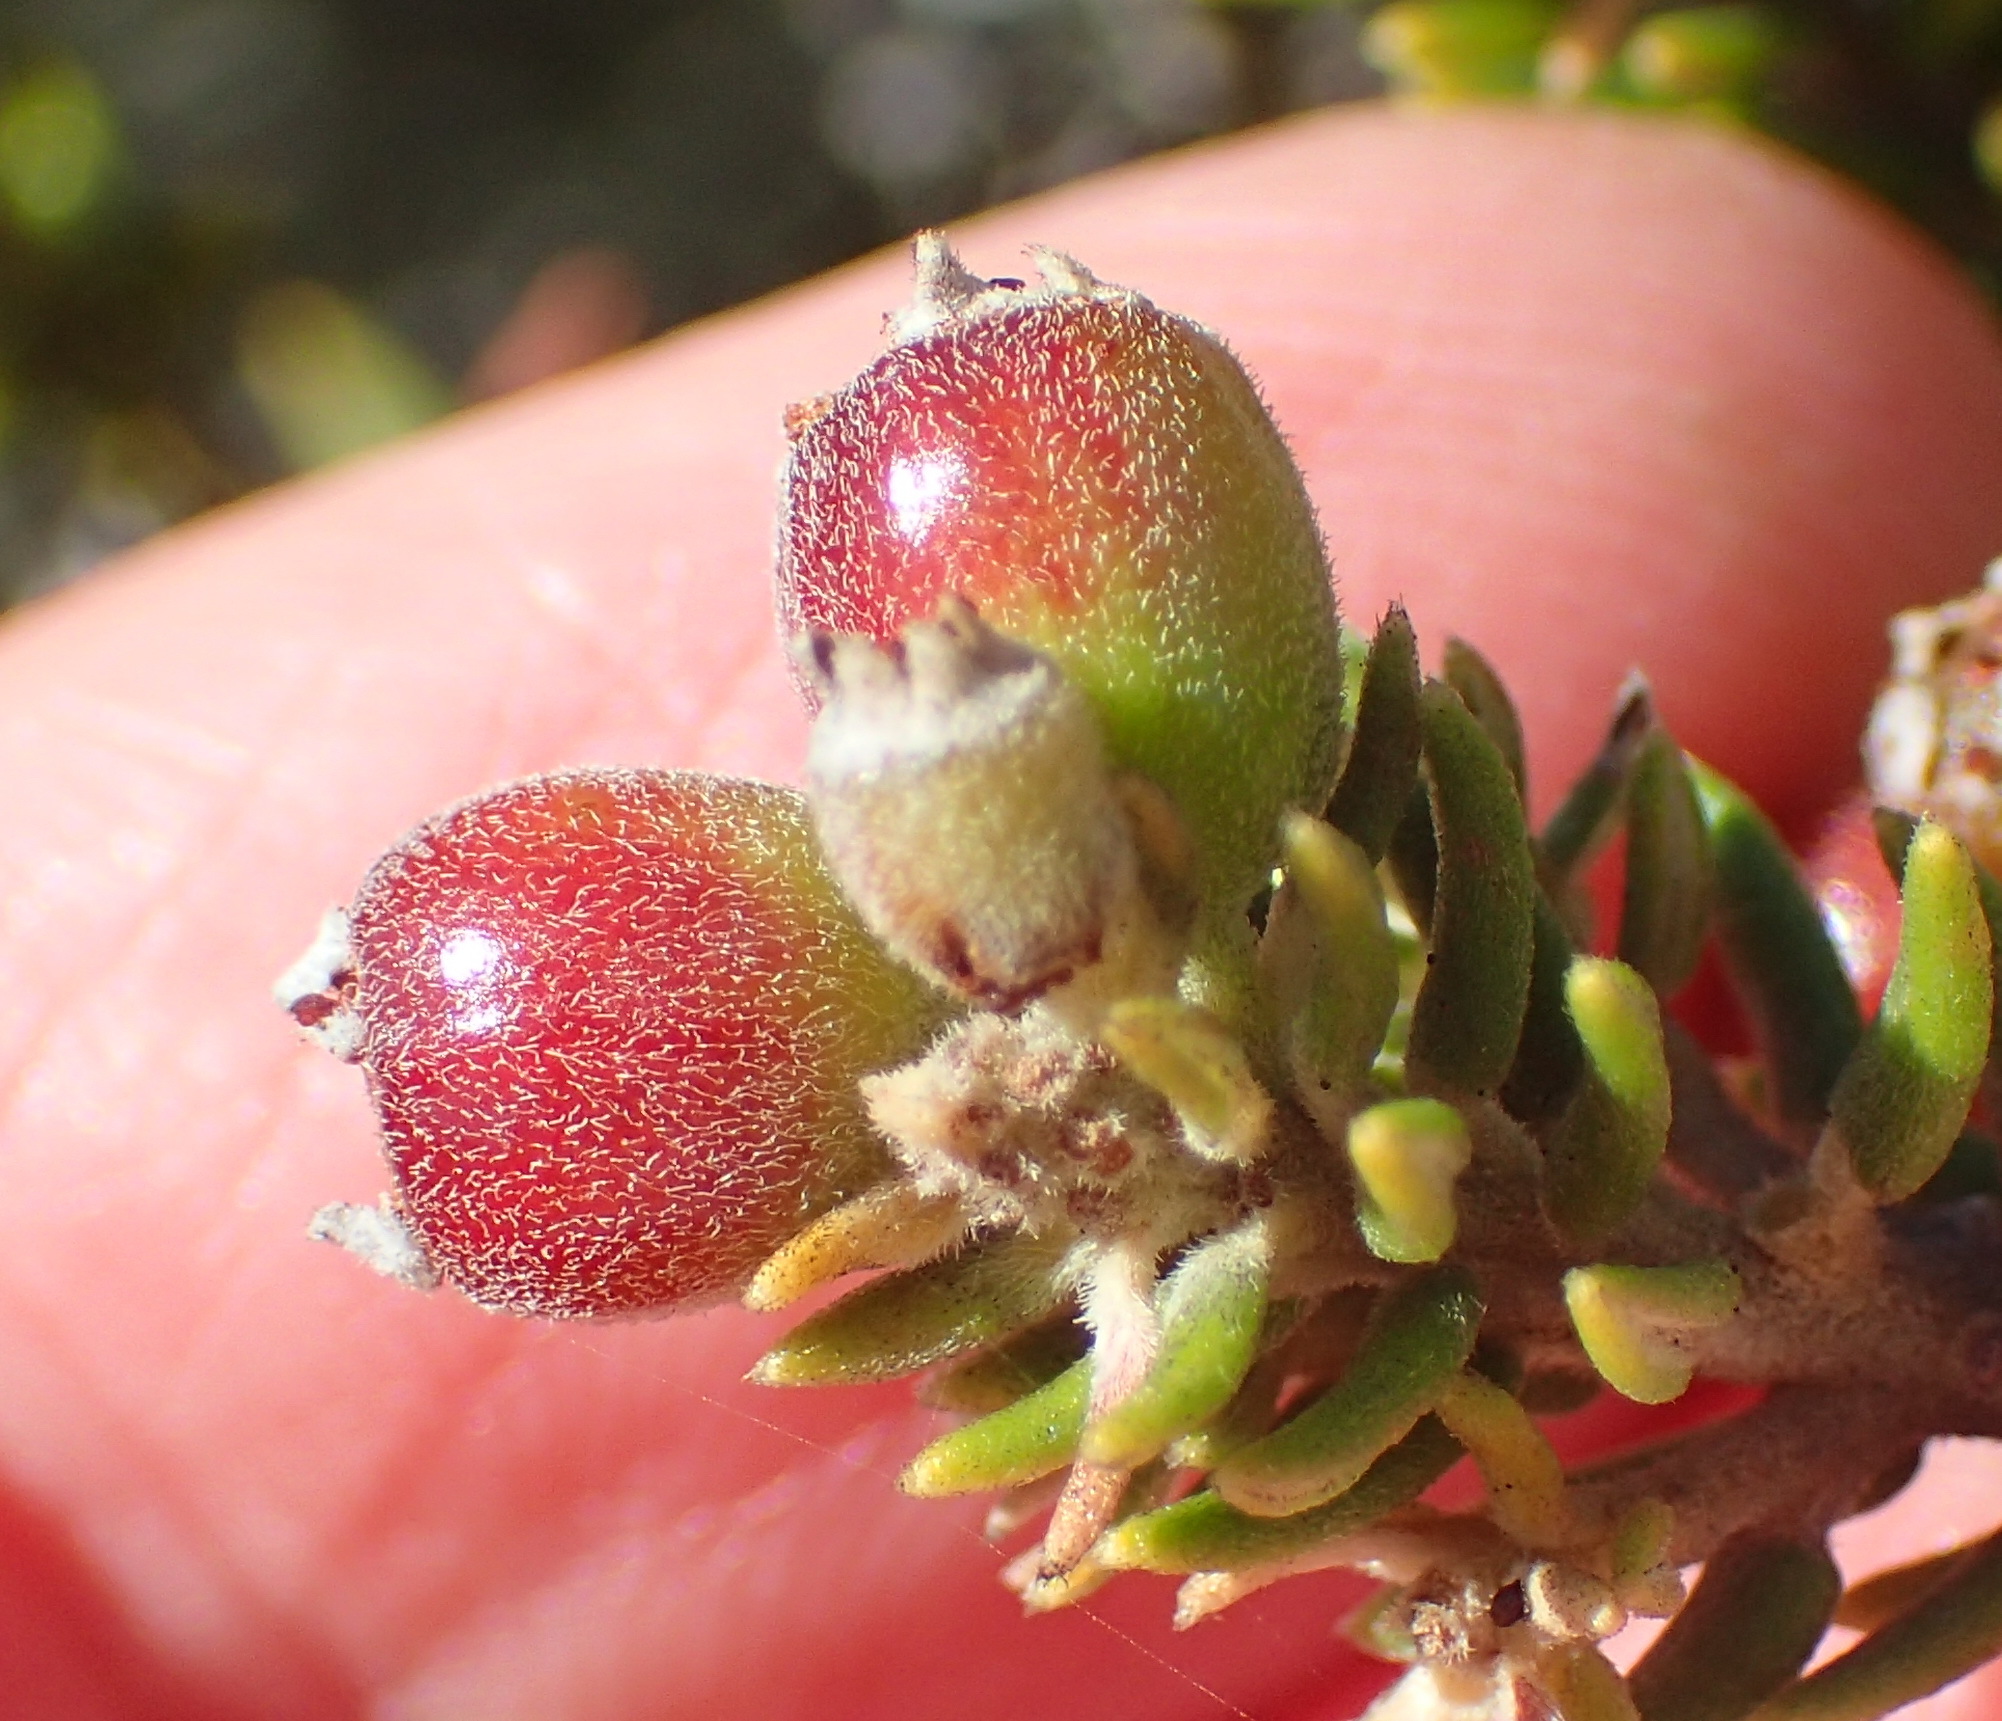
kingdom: Plantae
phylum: Tracheophyta
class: Magnoliopsida
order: Rosales
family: Rhamnaceae
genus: Phylica
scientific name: Phylica axillaris
